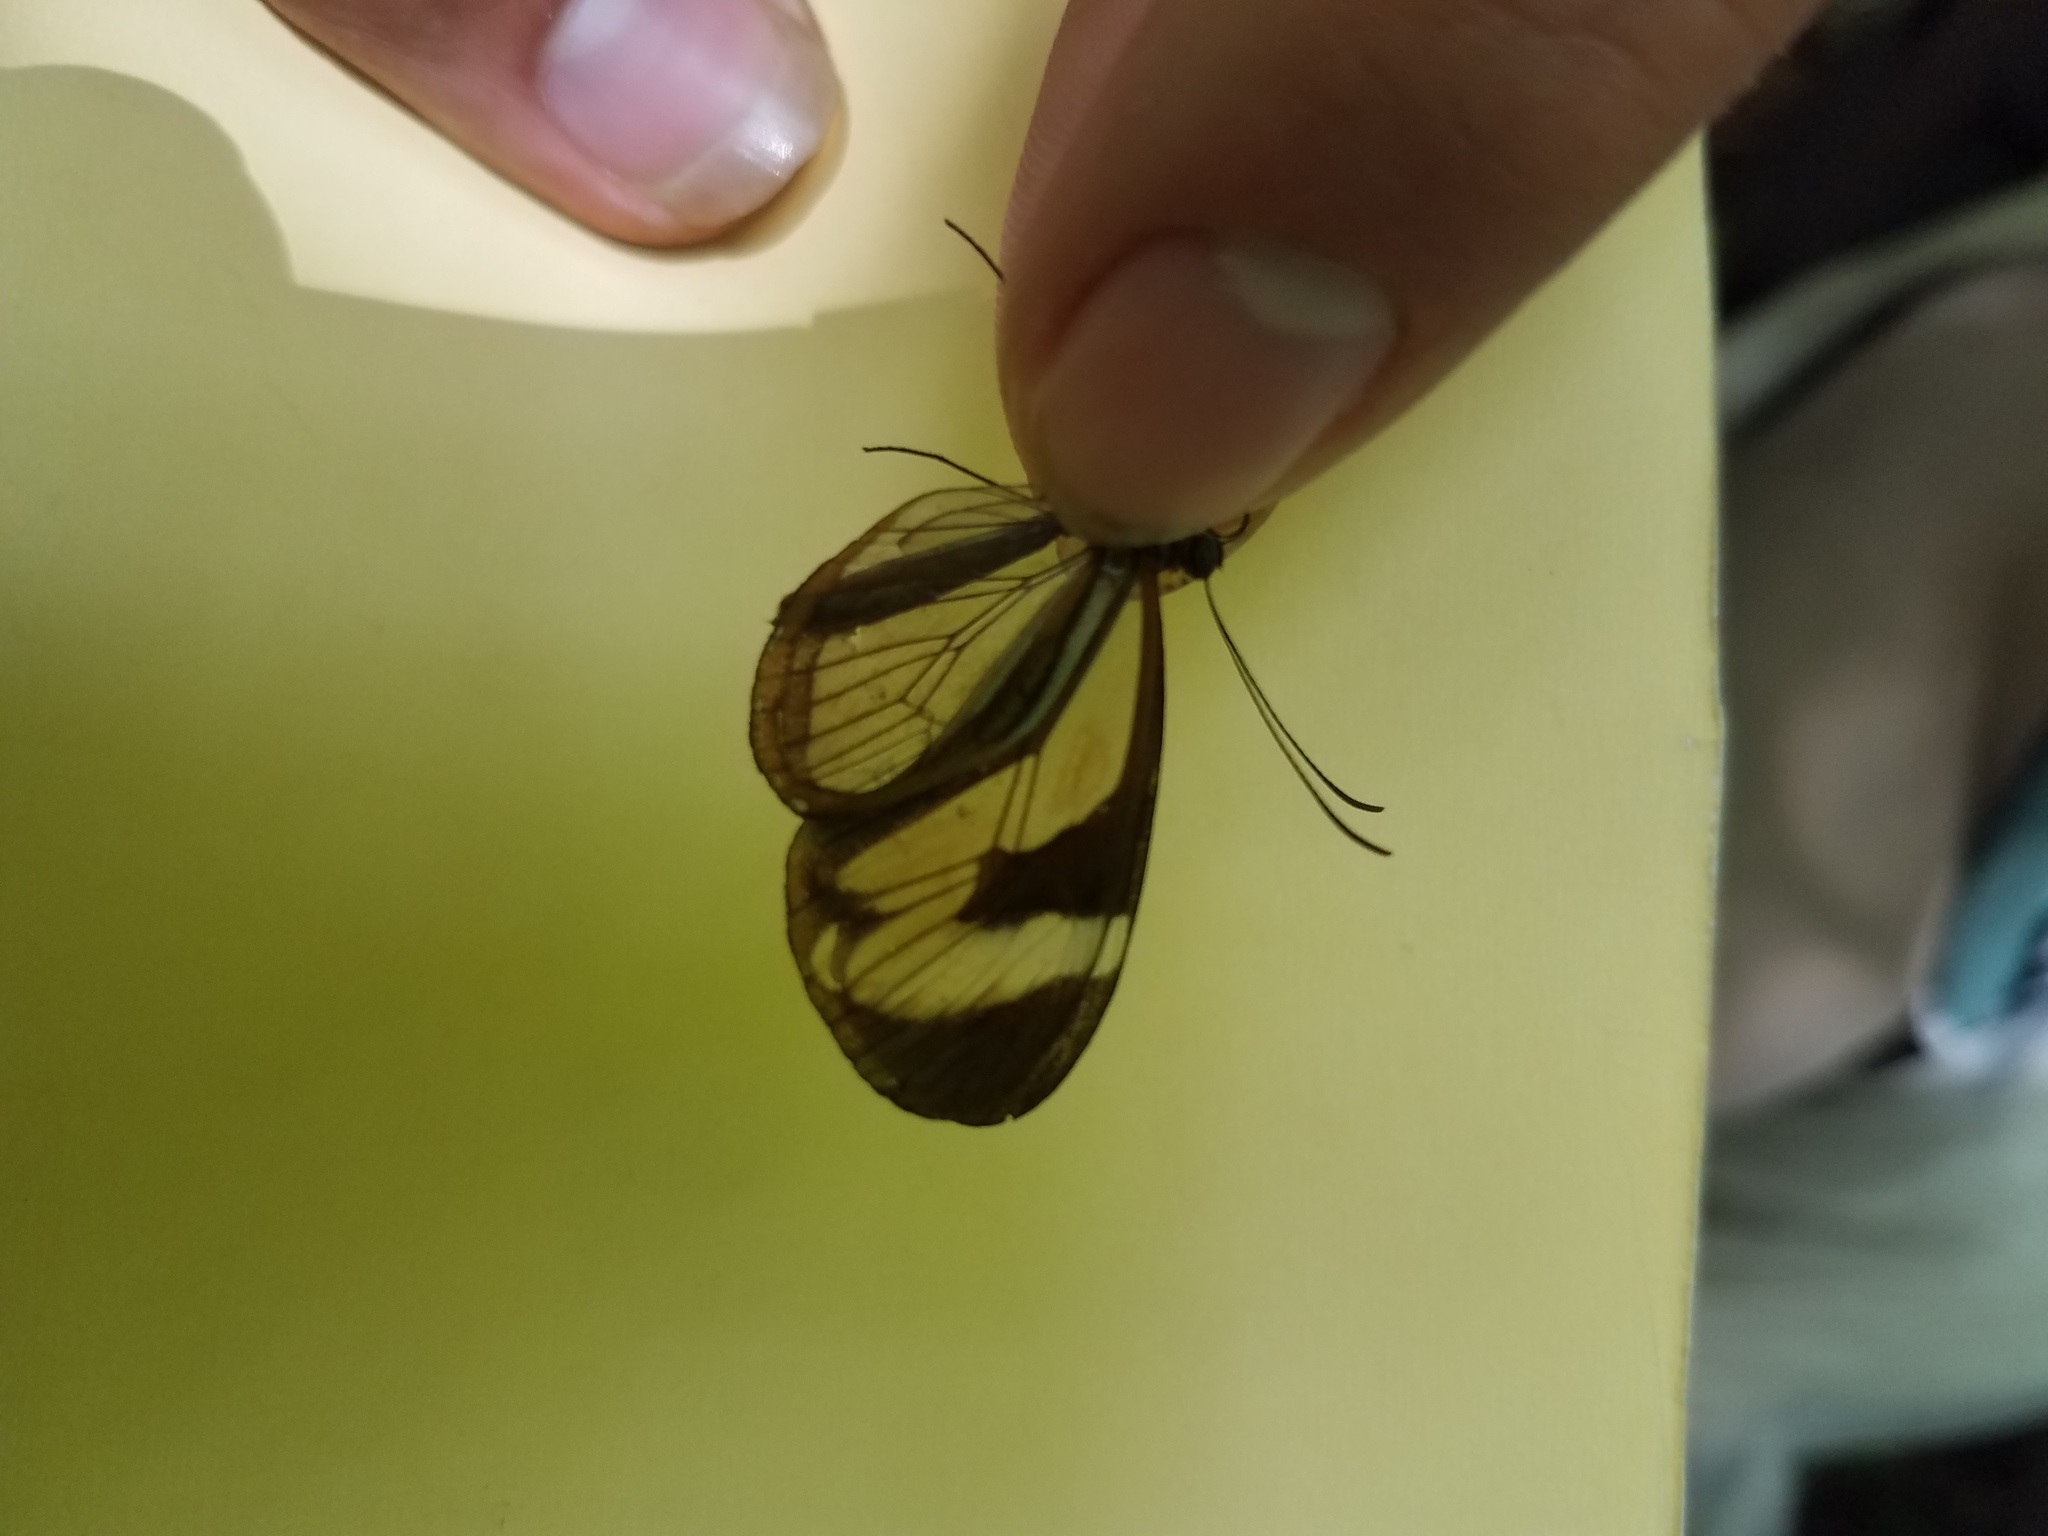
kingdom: Animalia
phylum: Arthropoda
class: Insecta
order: Lepidoptera
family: Nymphalidae
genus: Ithomia
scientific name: Ithomia patilla
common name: Patilla clearwing
